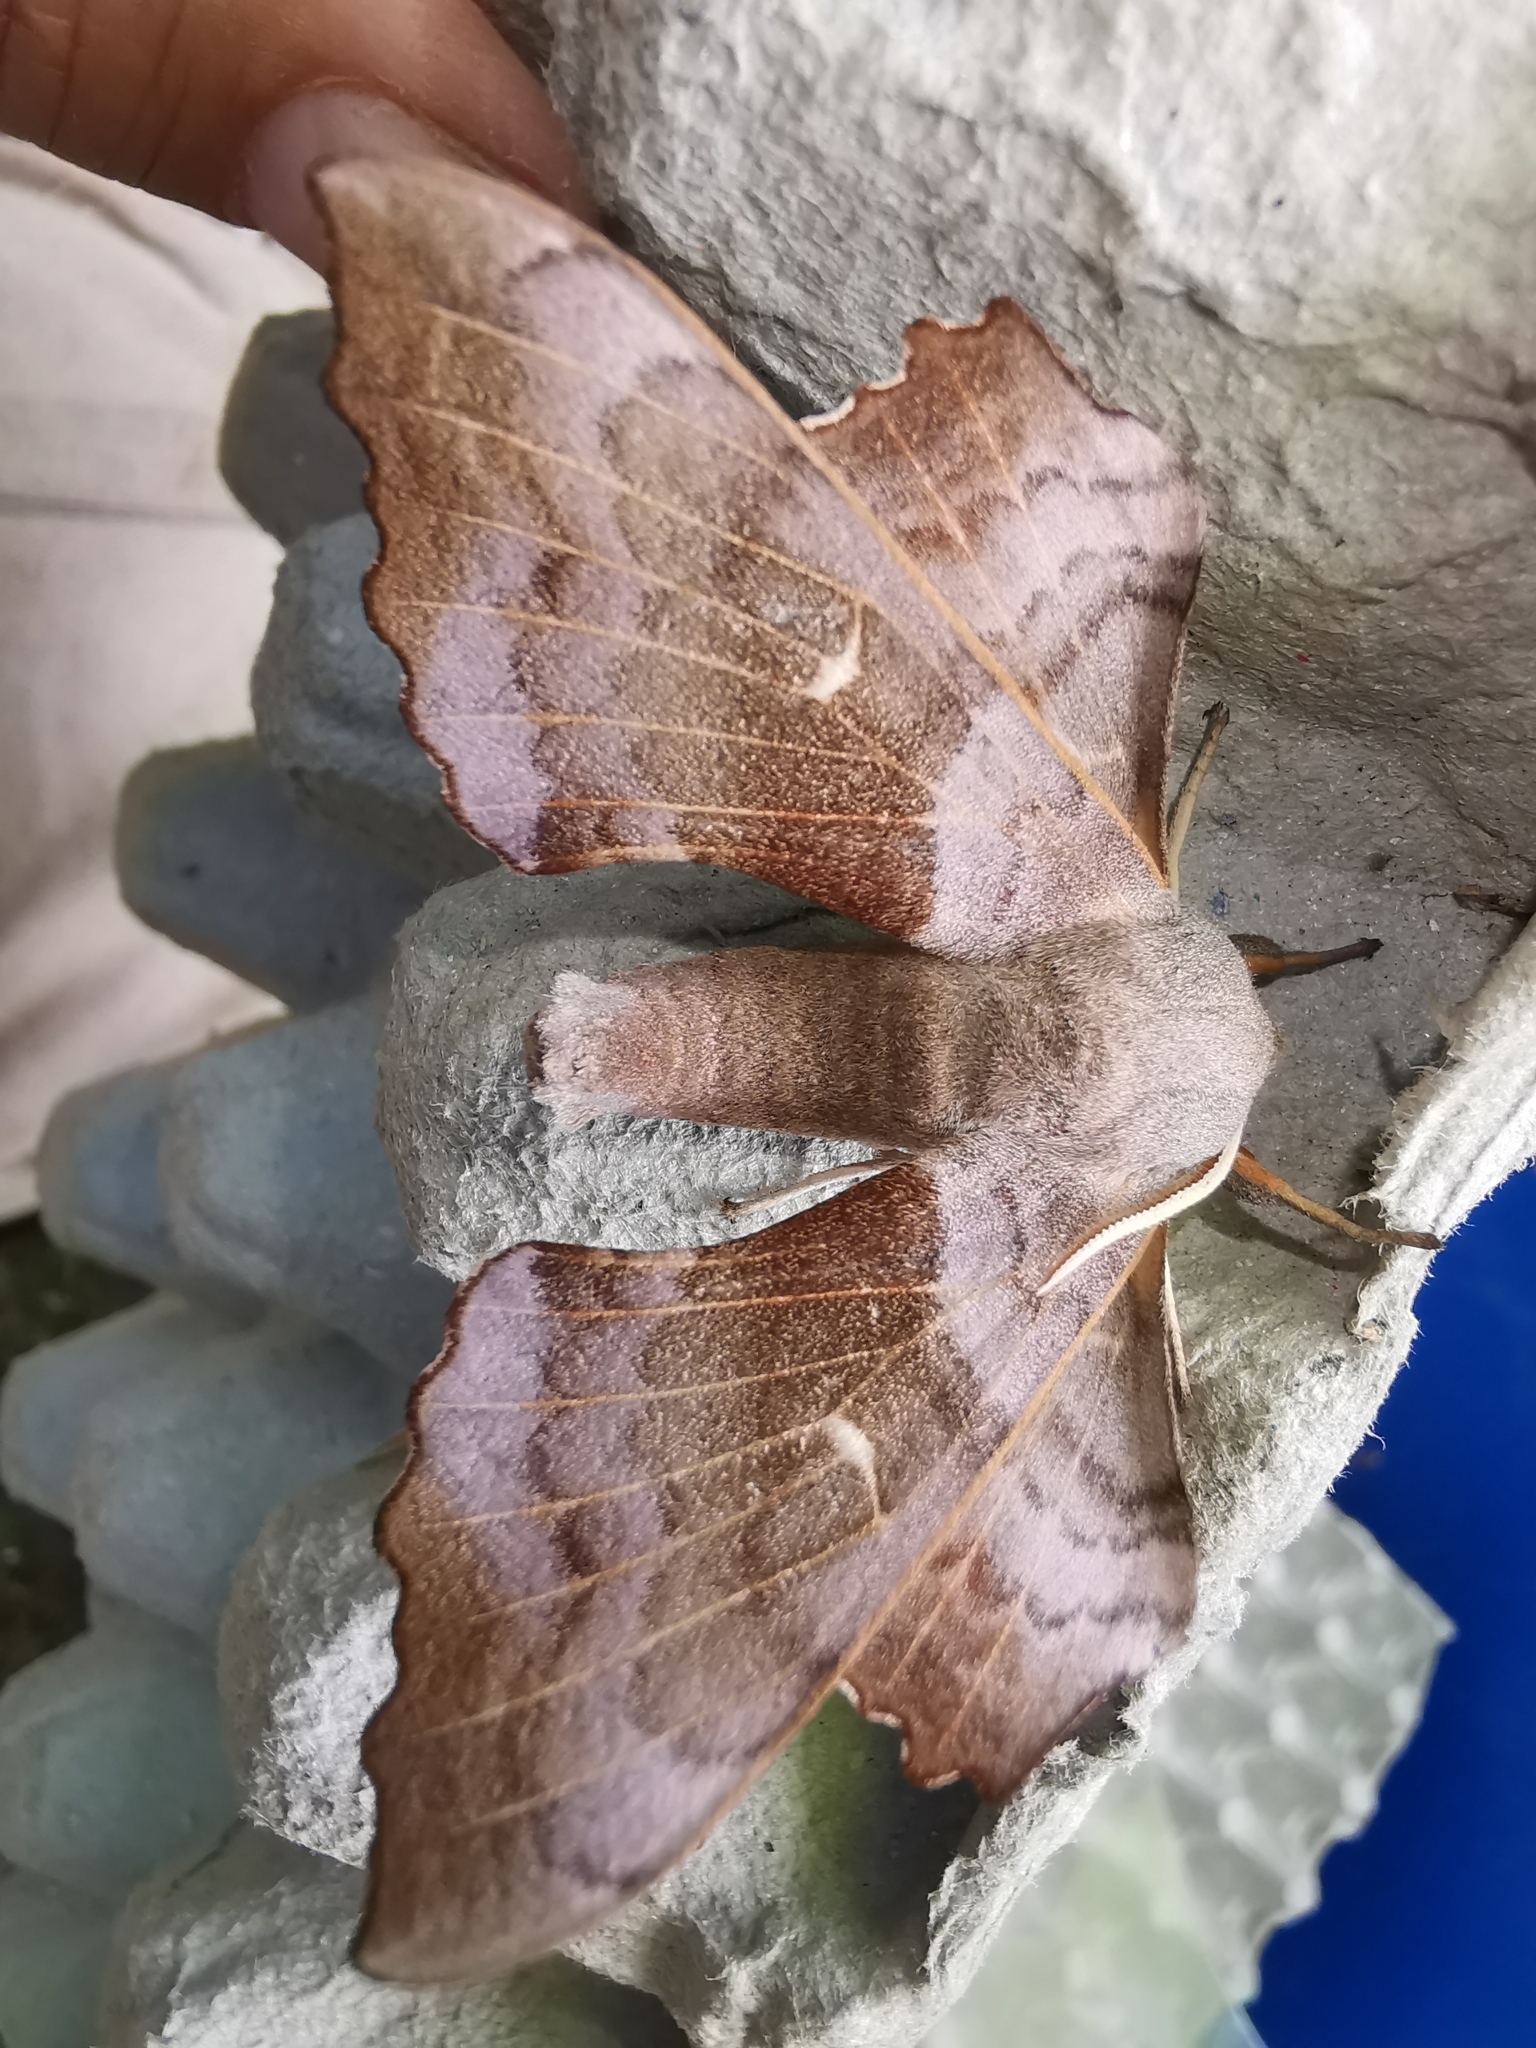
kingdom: Animalia
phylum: Arthropoda
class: Insecta
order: Lepidoptera
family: Sphingidae
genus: Laothoe
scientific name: Laothoe populi
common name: Poplar hawk-moth
